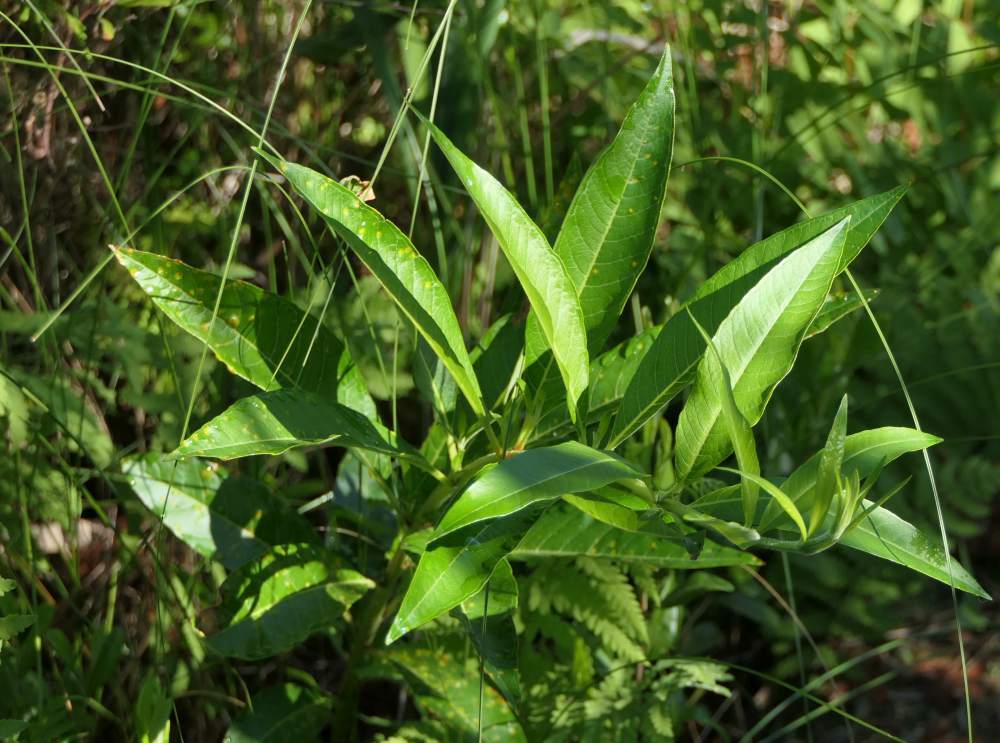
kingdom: Plantae
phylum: Tracheophyta
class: Magnoliopsida
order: Myrtales
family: Lythraceae
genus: Decodon
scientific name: Decodon verticillatus
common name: Hairy swamp loosestrife
